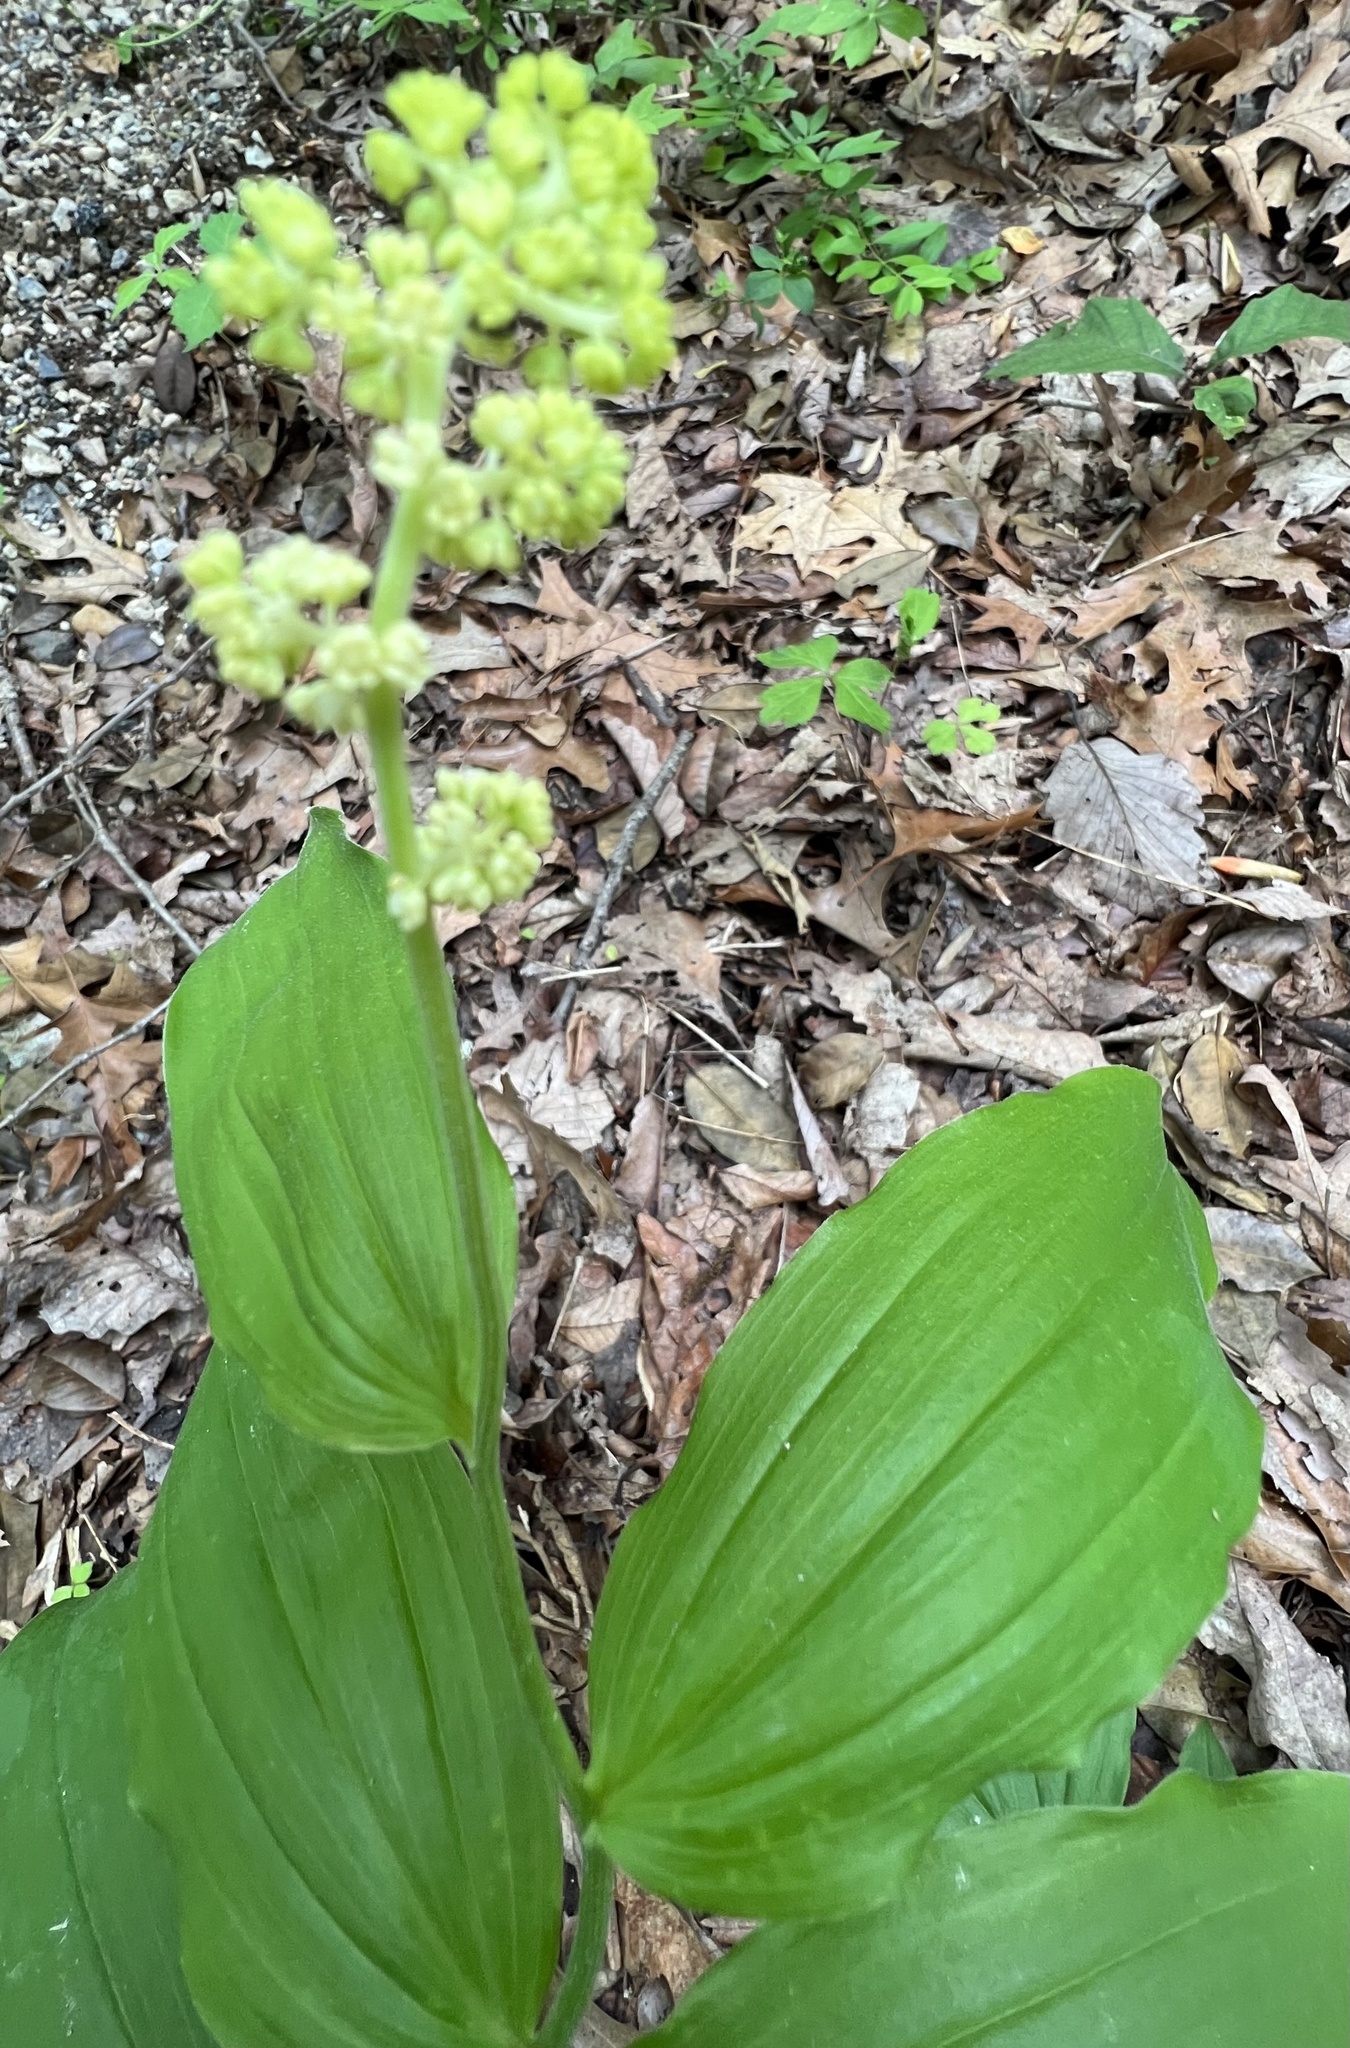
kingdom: Plantae
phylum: Tracheophyta
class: Liliopsida
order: Asparagales
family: Asparagaceae
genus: Maianthemum
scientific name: Maianthemum racemosum
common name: False spikenard
